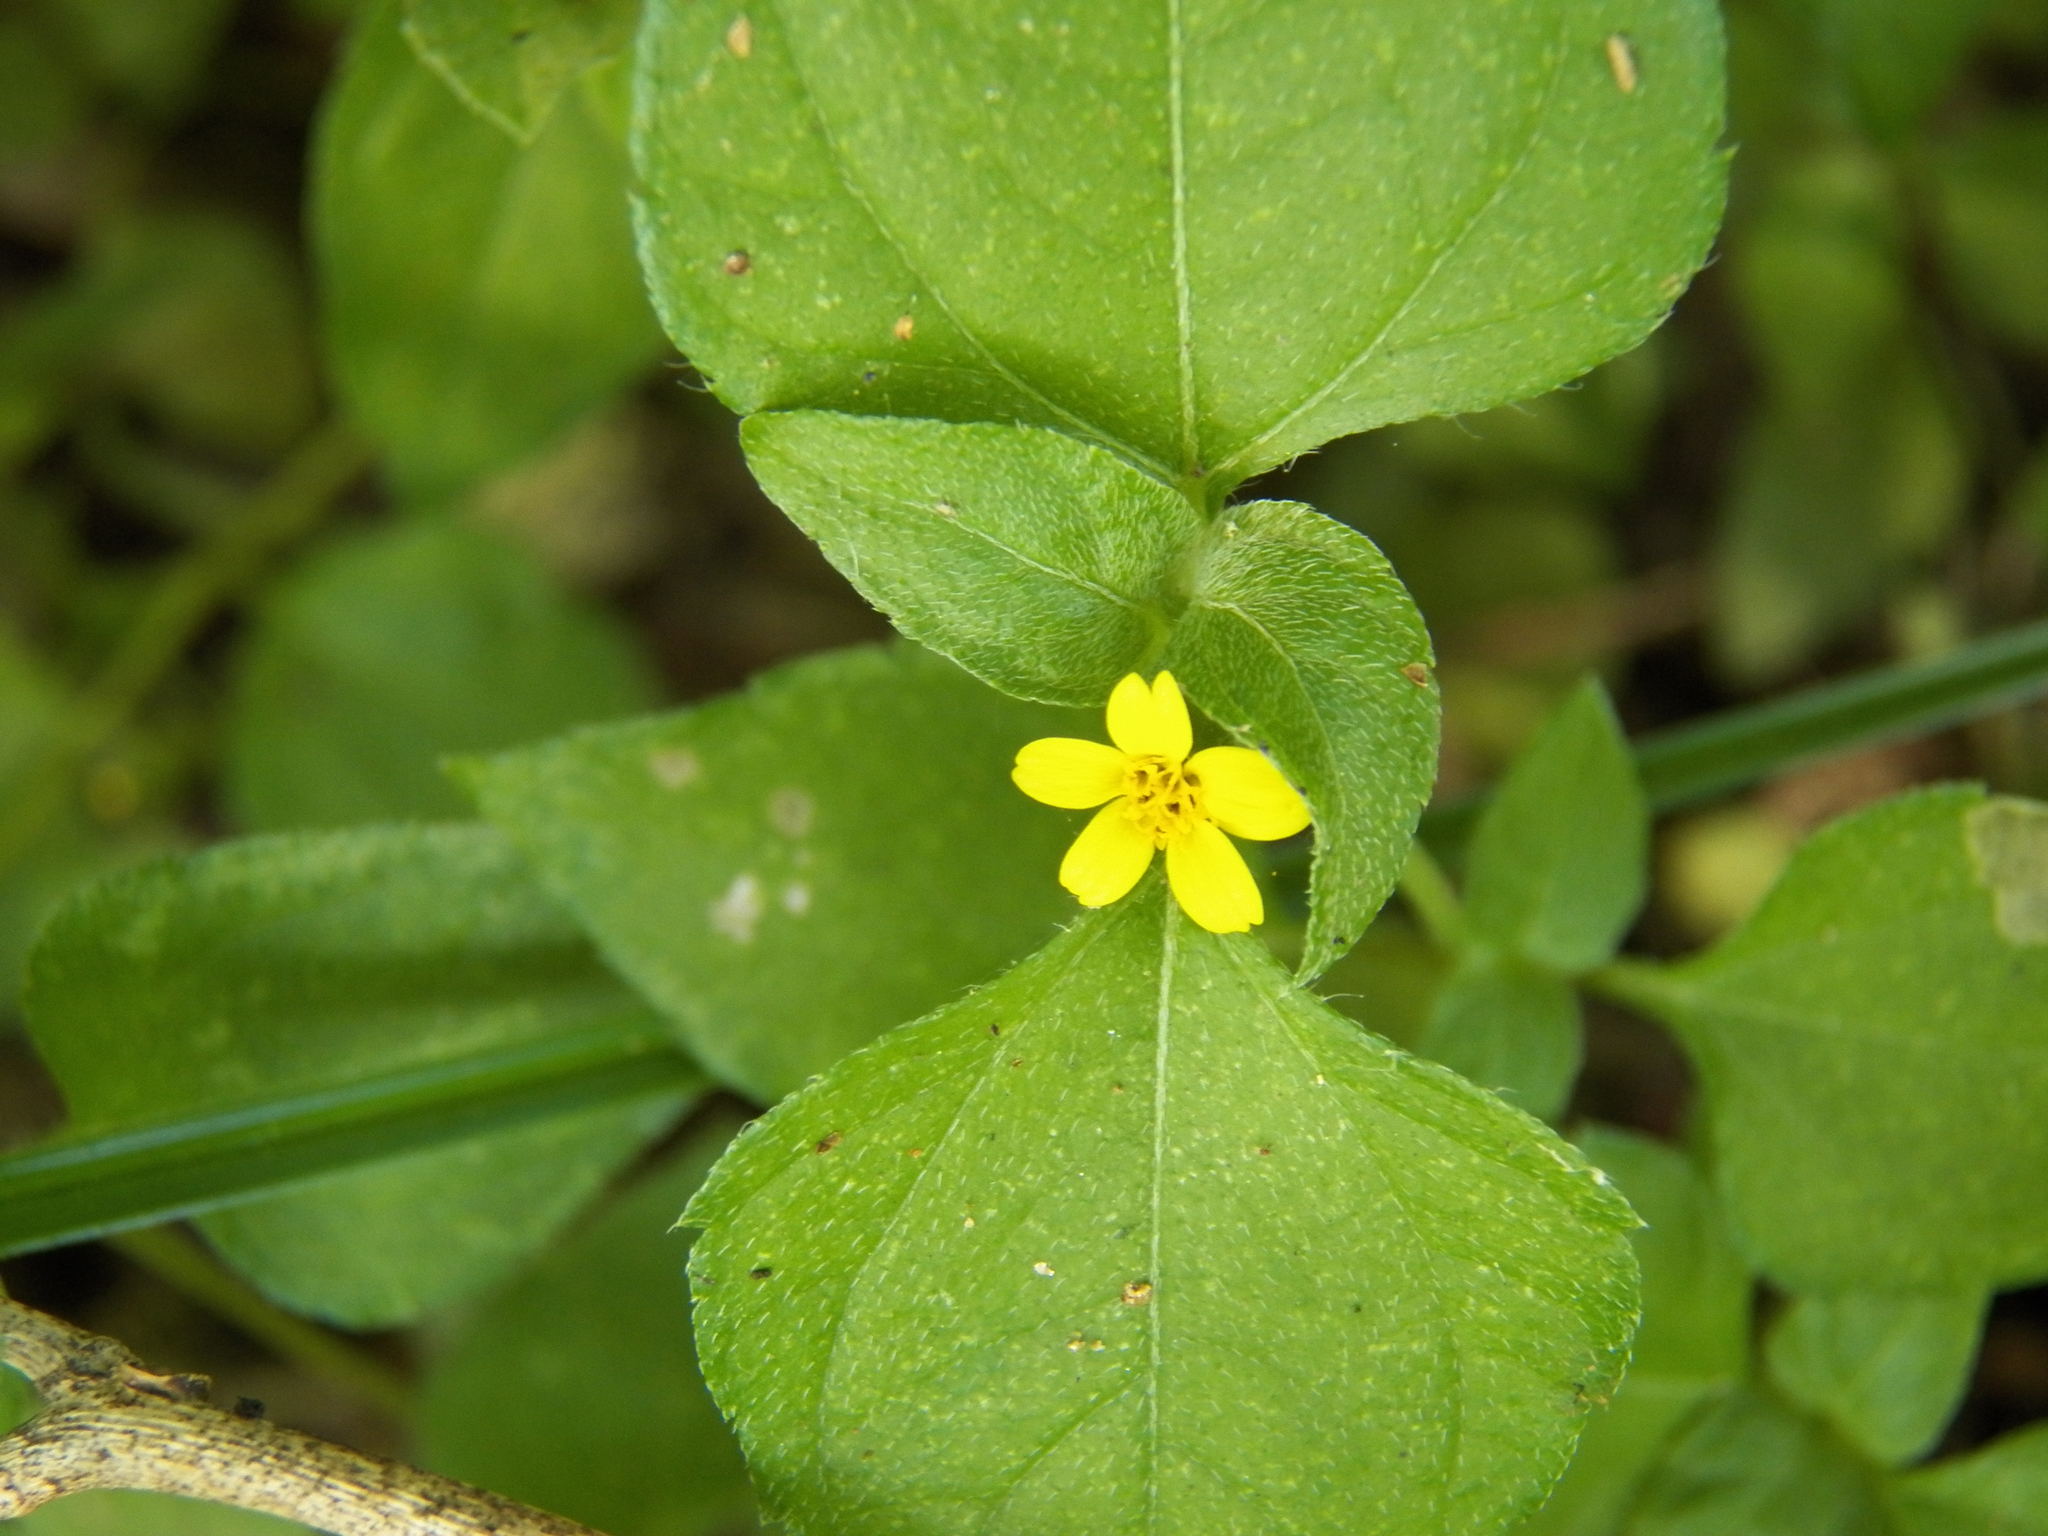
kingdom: Plantae
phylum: Tracheophyta
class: Magnoliopsida
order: Asterales
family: Asteraceae
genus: Calyptocarpus
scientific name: Calyptocarpus vialis
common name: Straggler daisy
